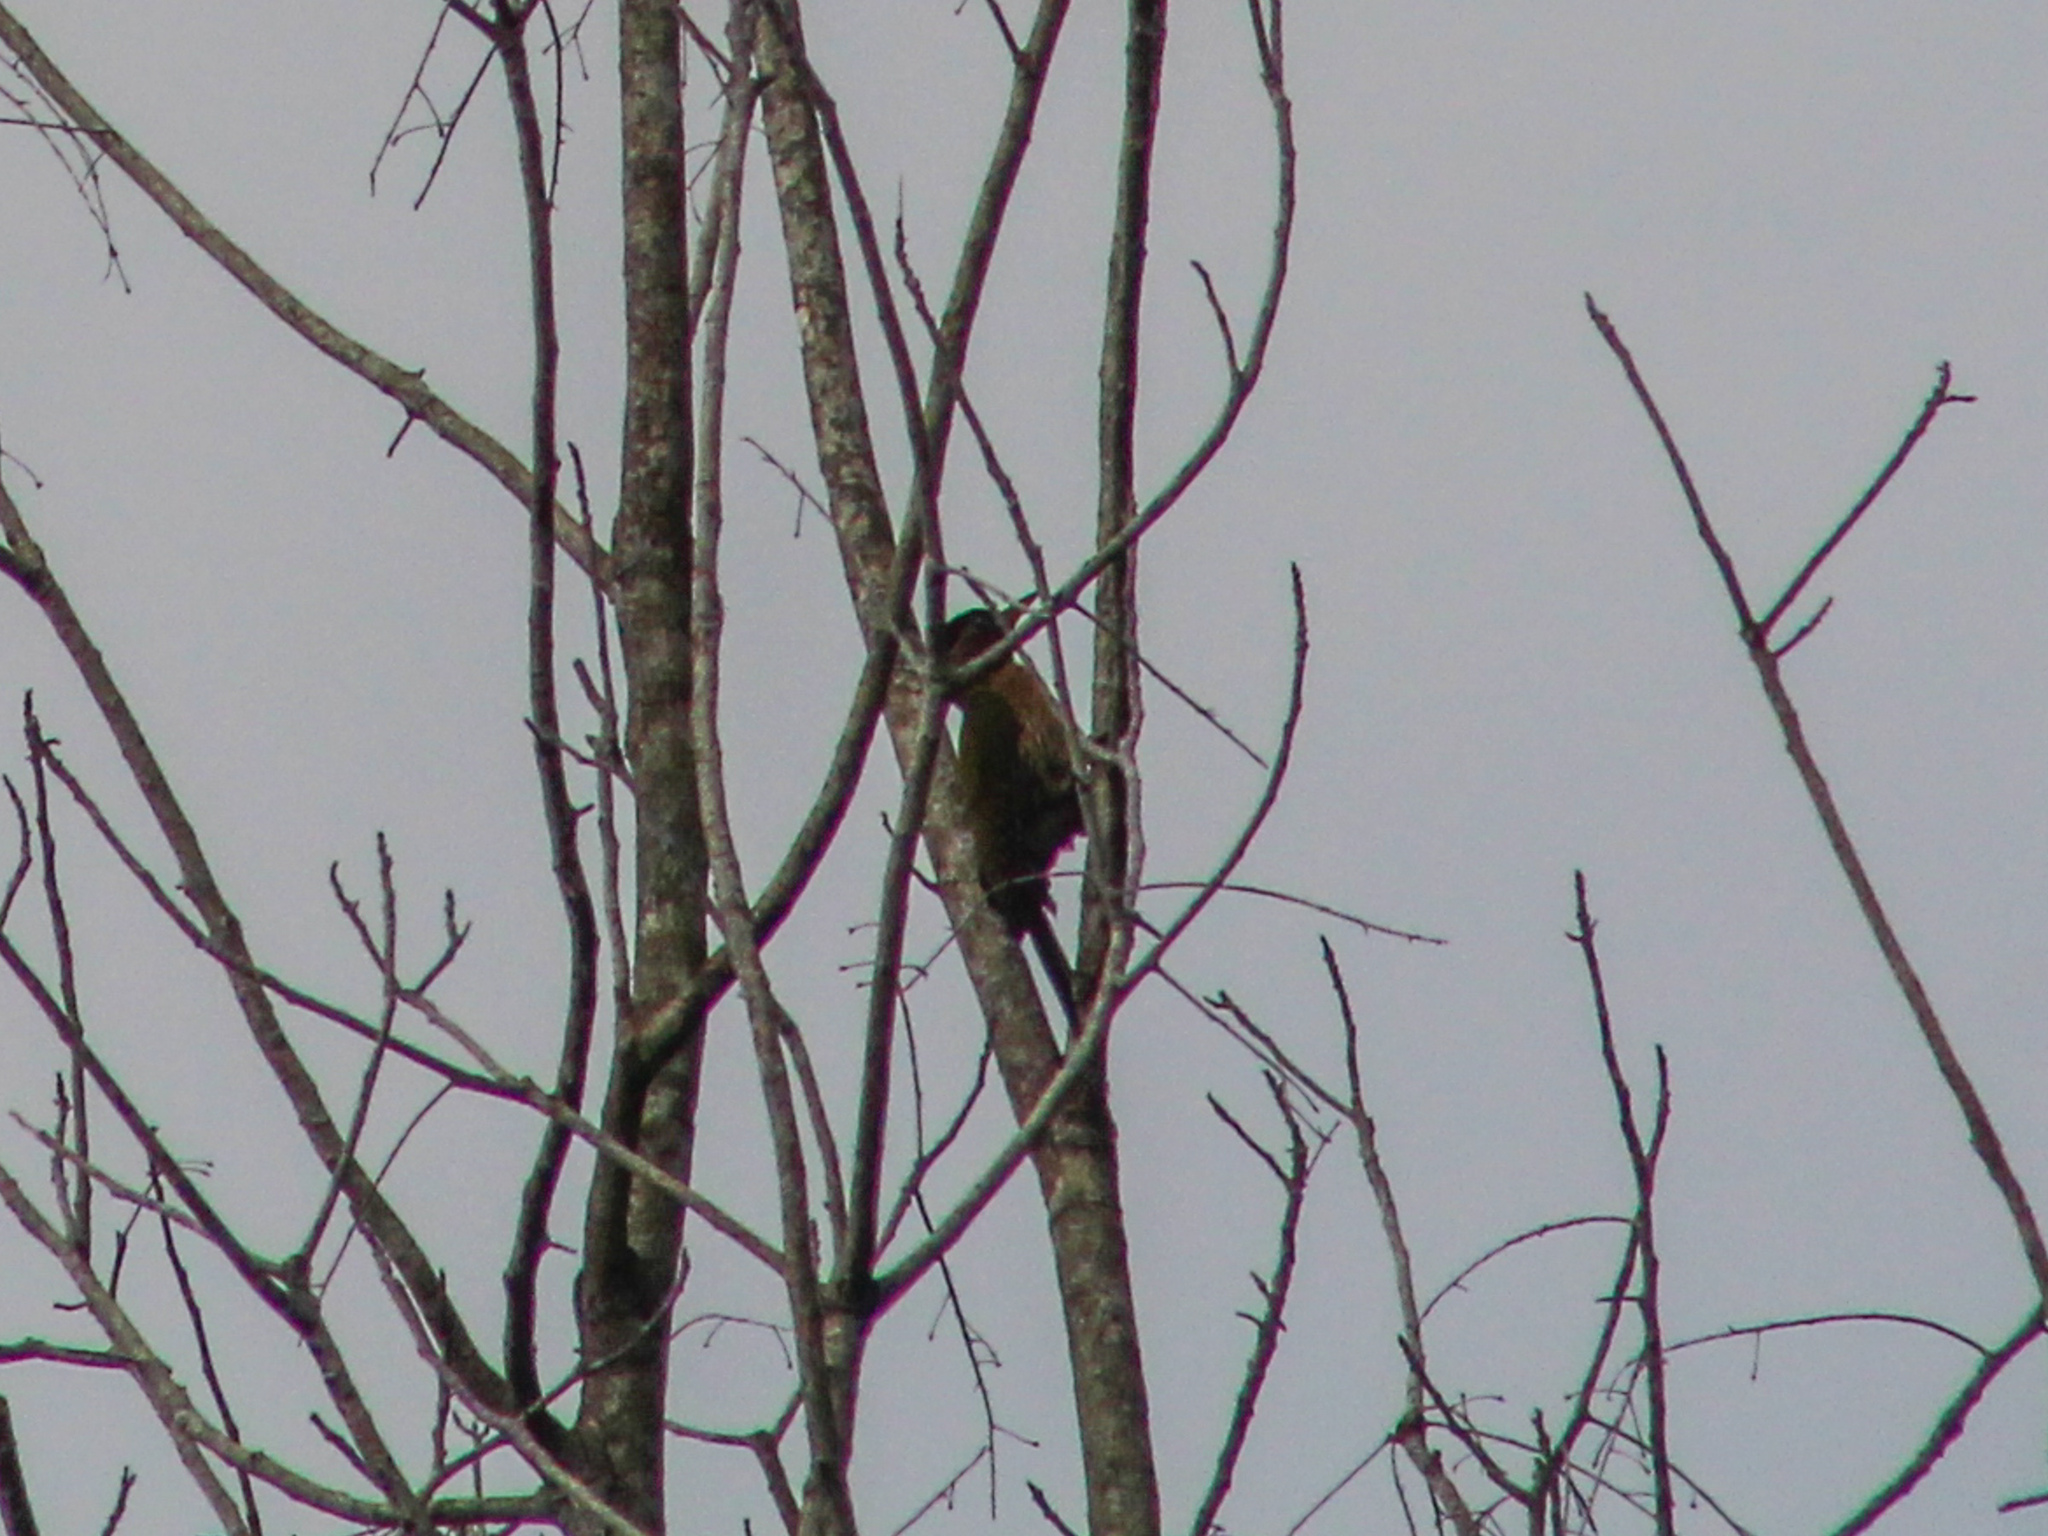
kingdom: Animalia
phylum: Chordata
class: Aves
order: Piciformes
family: Picidae
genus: Picus
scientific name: Picus vittatus
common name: Laced woodpecker
